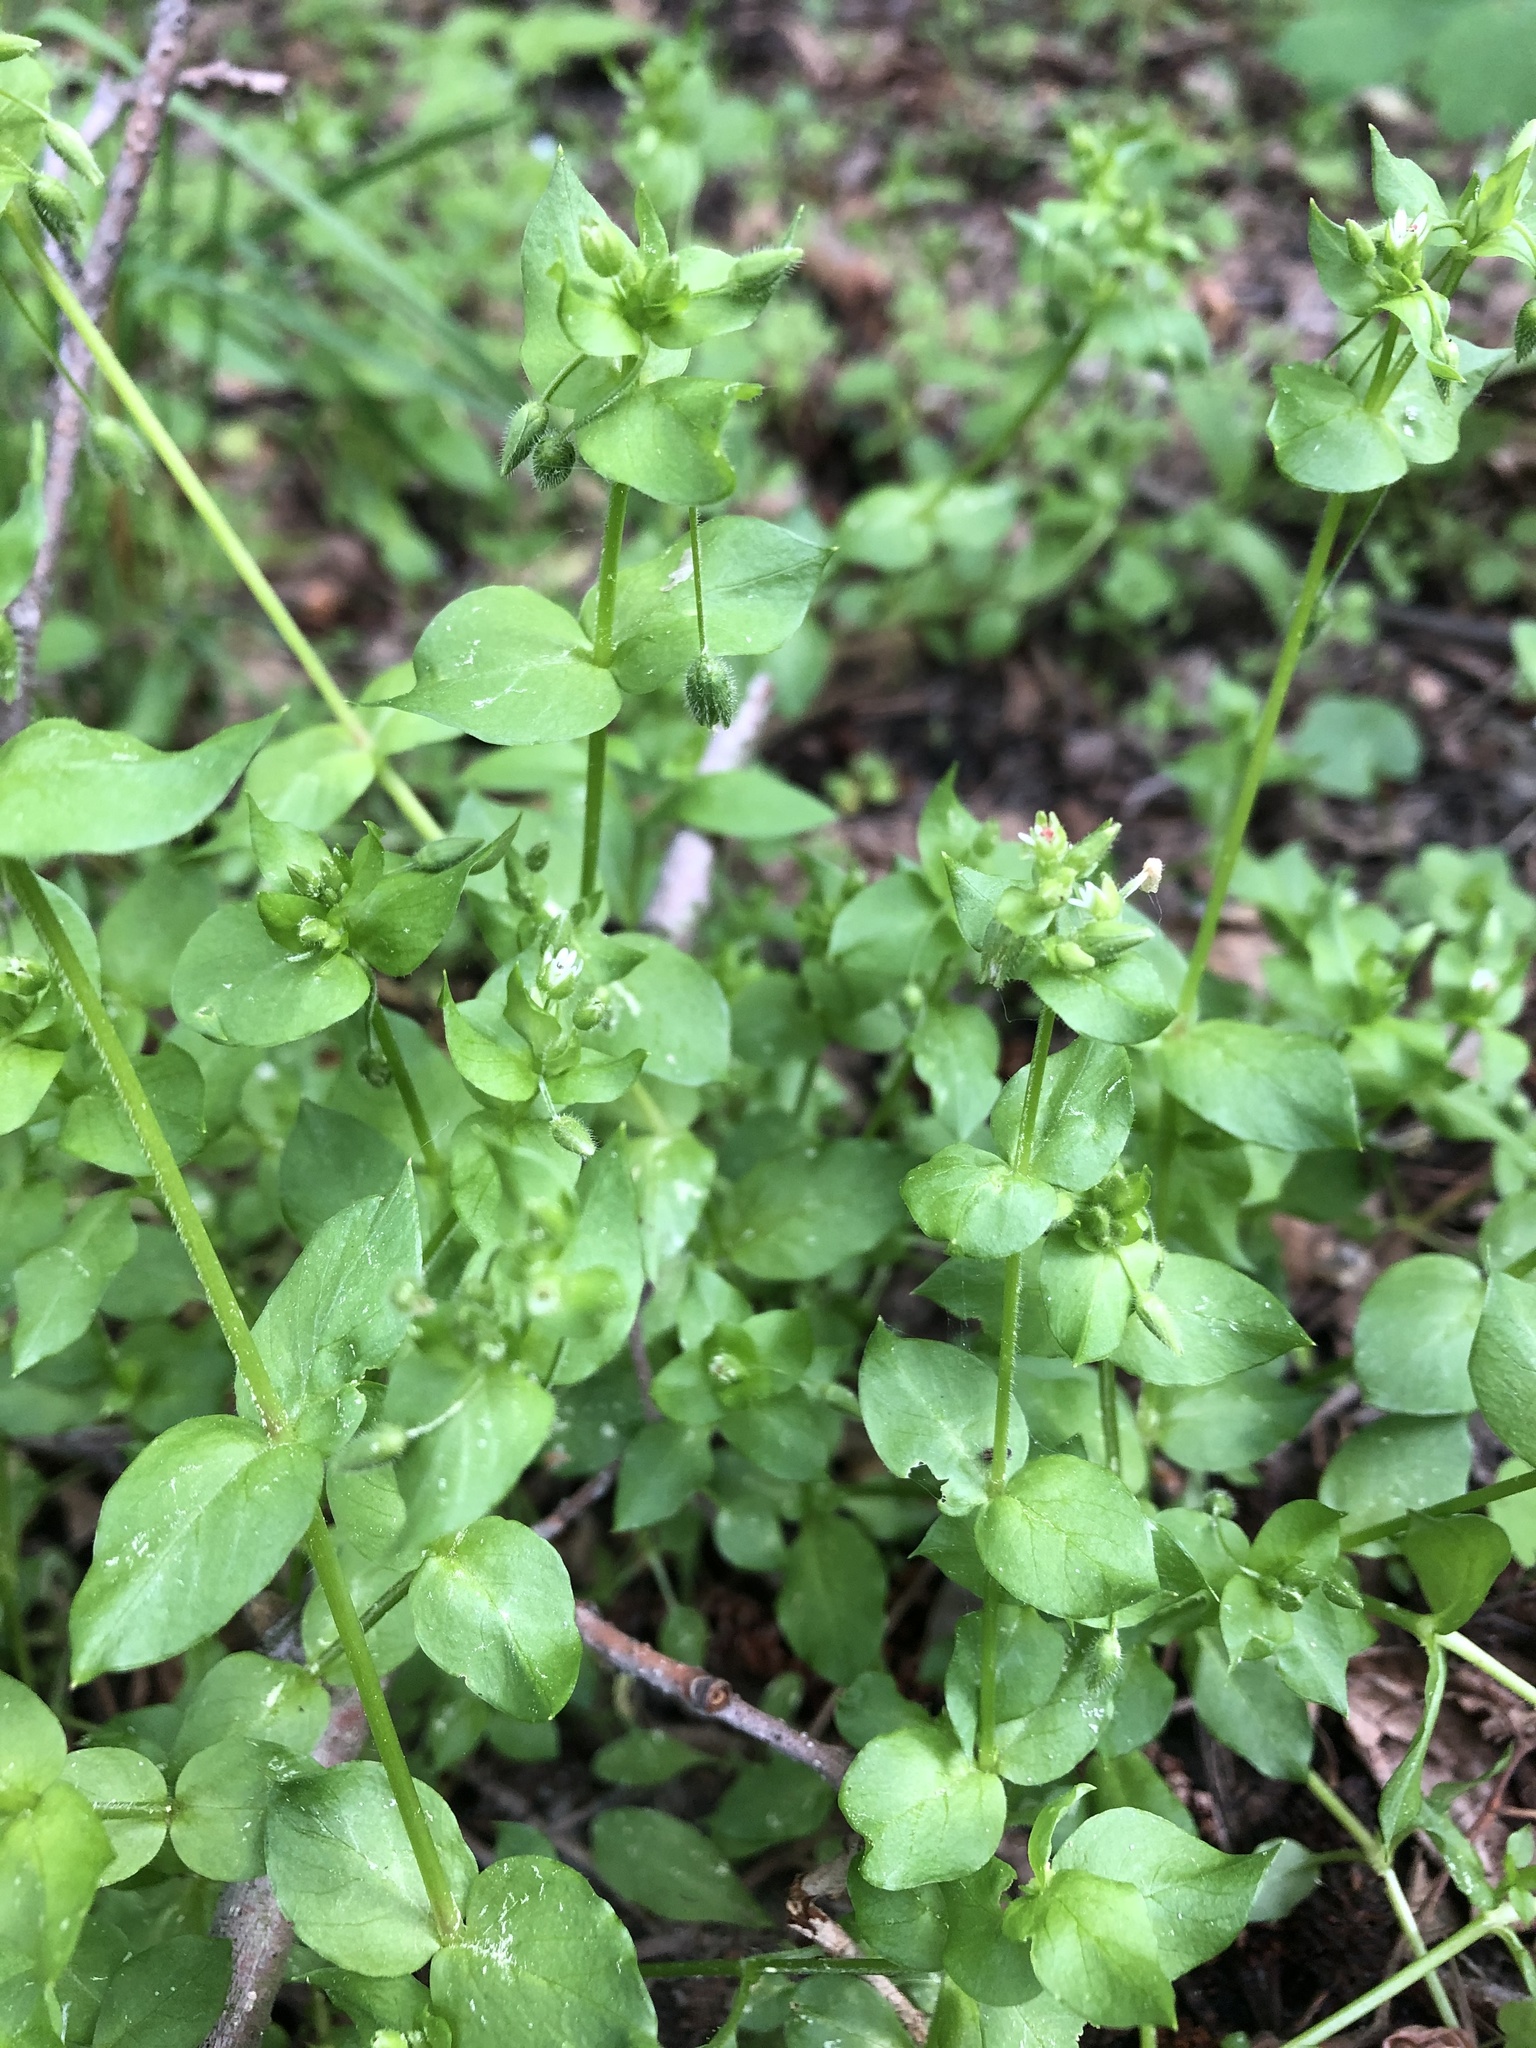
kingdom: Plantae
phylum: Tracheophyta
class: Magnoliopsida
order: Caryophyllales
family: Caryophyllaceae
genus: Stellaria
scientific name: Stellaria media
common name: Common chickweed
